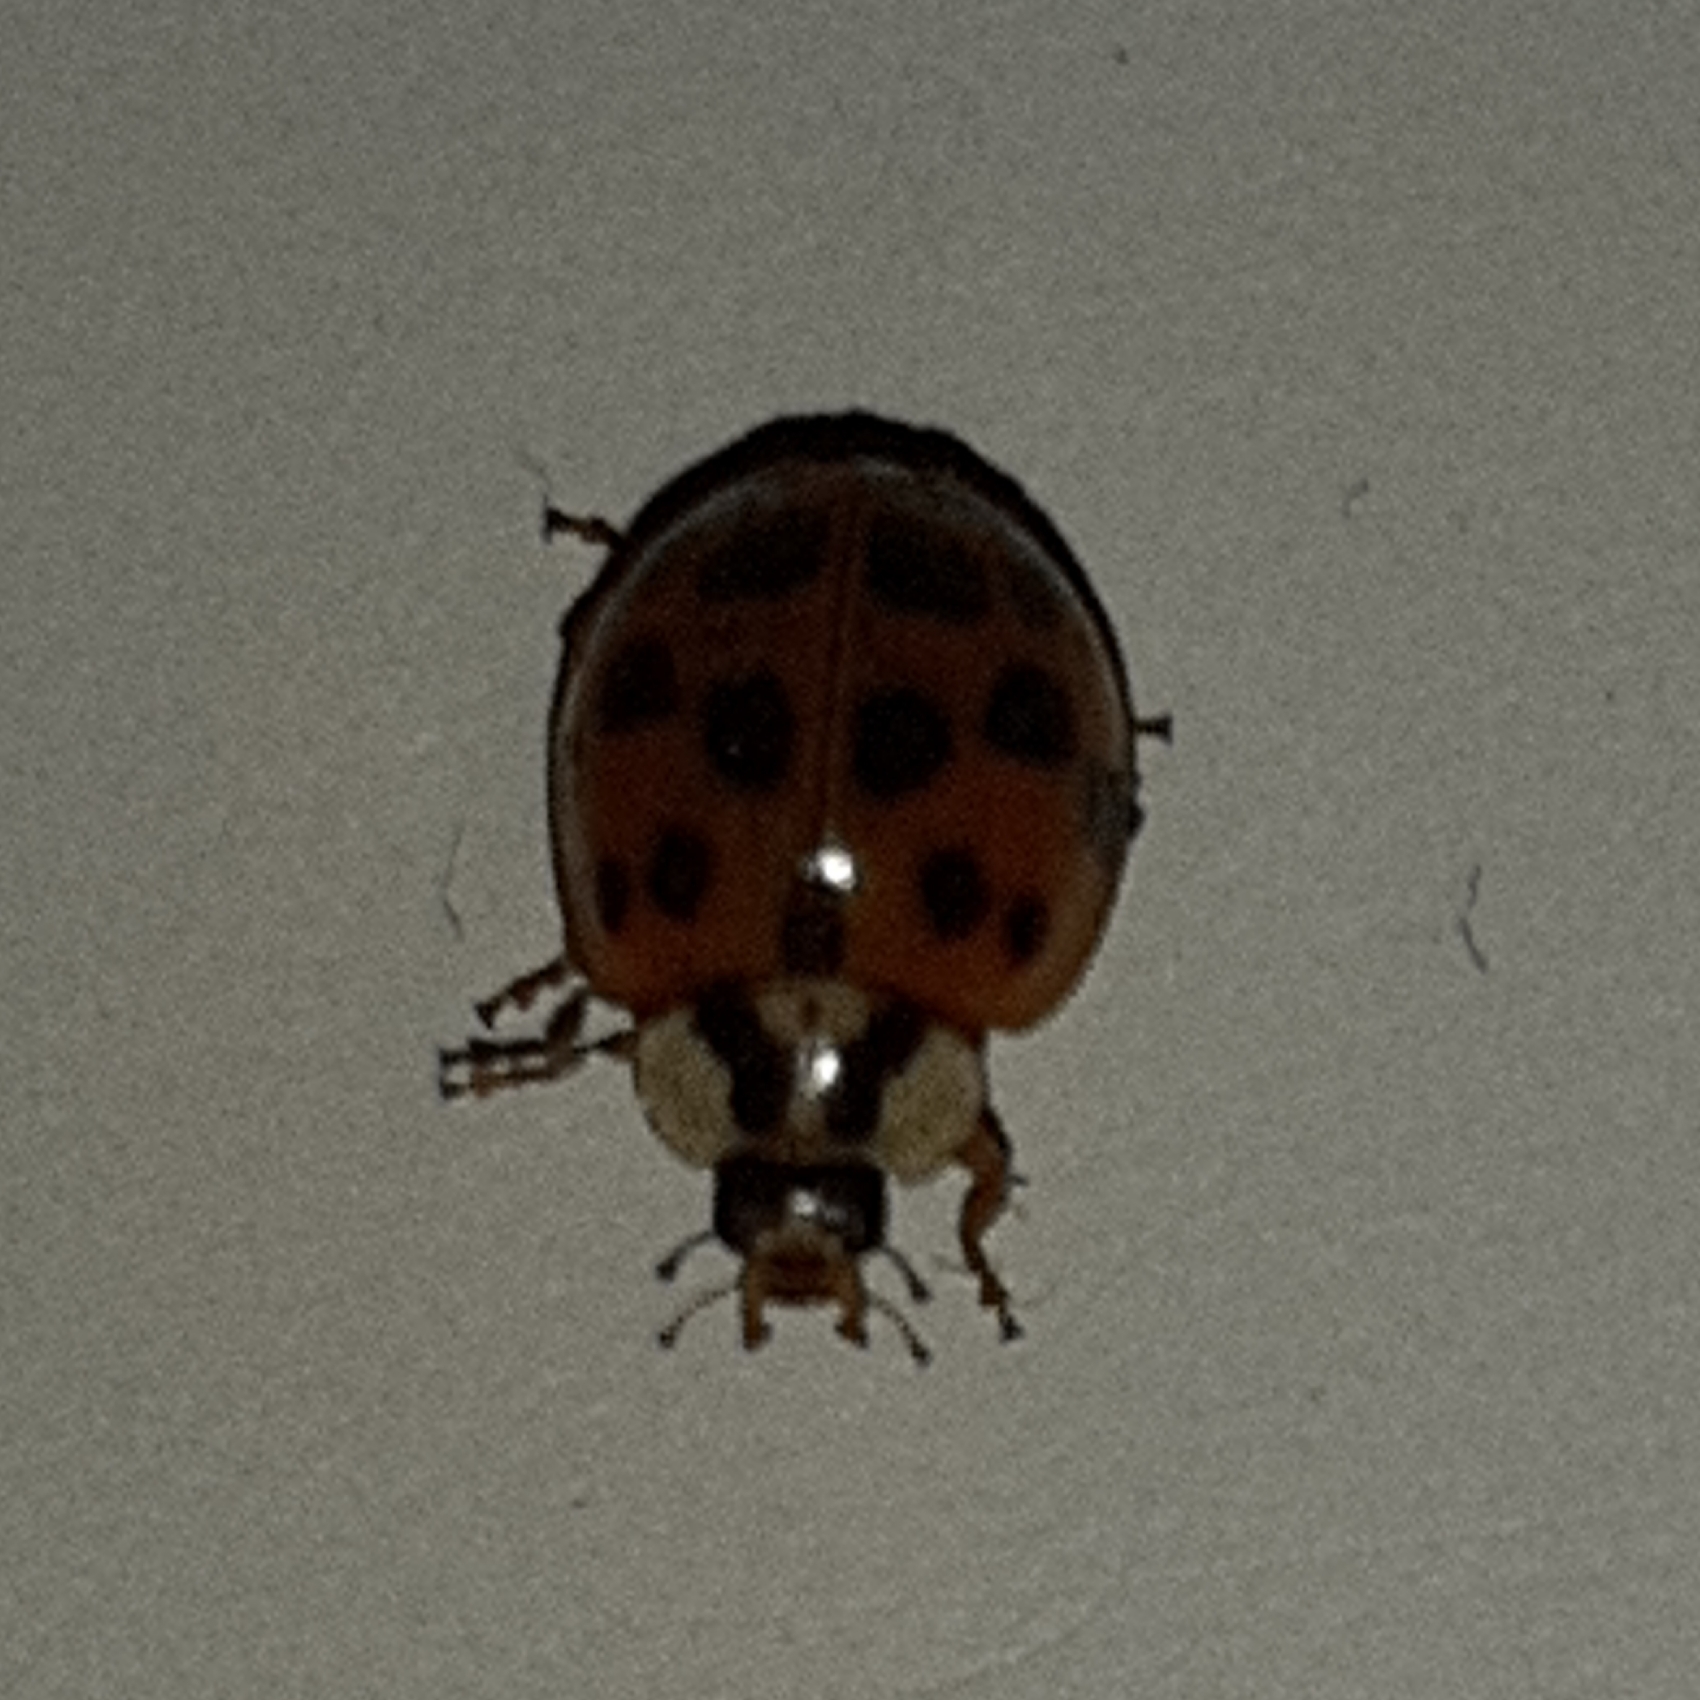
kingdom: Animalia
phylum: Arthropoda
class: Insecta
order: Coleoptera
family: Coccinellidae
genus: Harmonia
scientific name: Harmonia axyridis
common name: Harlequin ladybird
